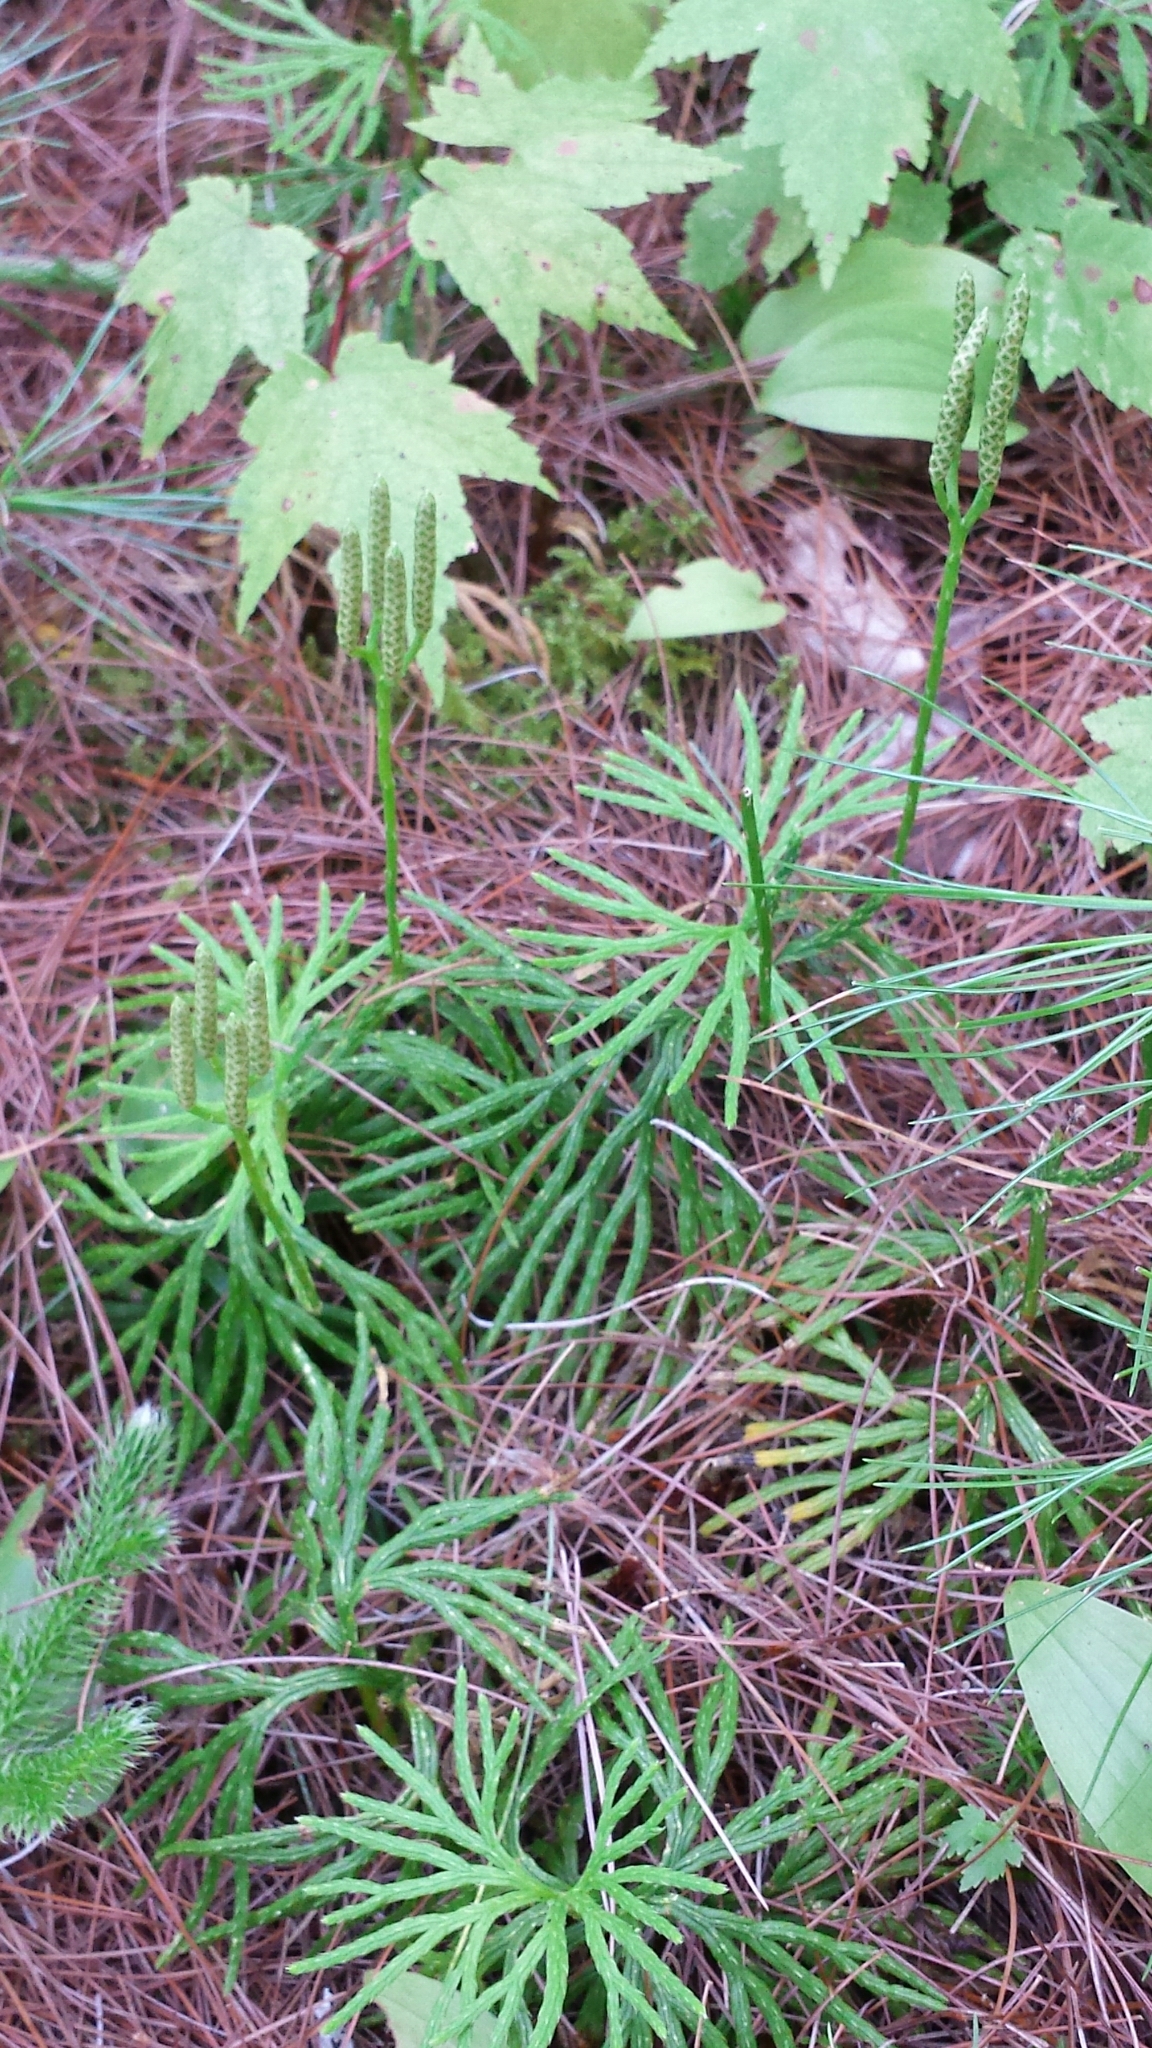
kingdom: Plantae
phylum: Tracheophyta
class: Lycopodiopsida
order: Lycopodiales
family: Lycopodiaceae
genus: Diphasiastrum
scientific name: Diphasiastrum digitatum
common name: Southern running-pine
